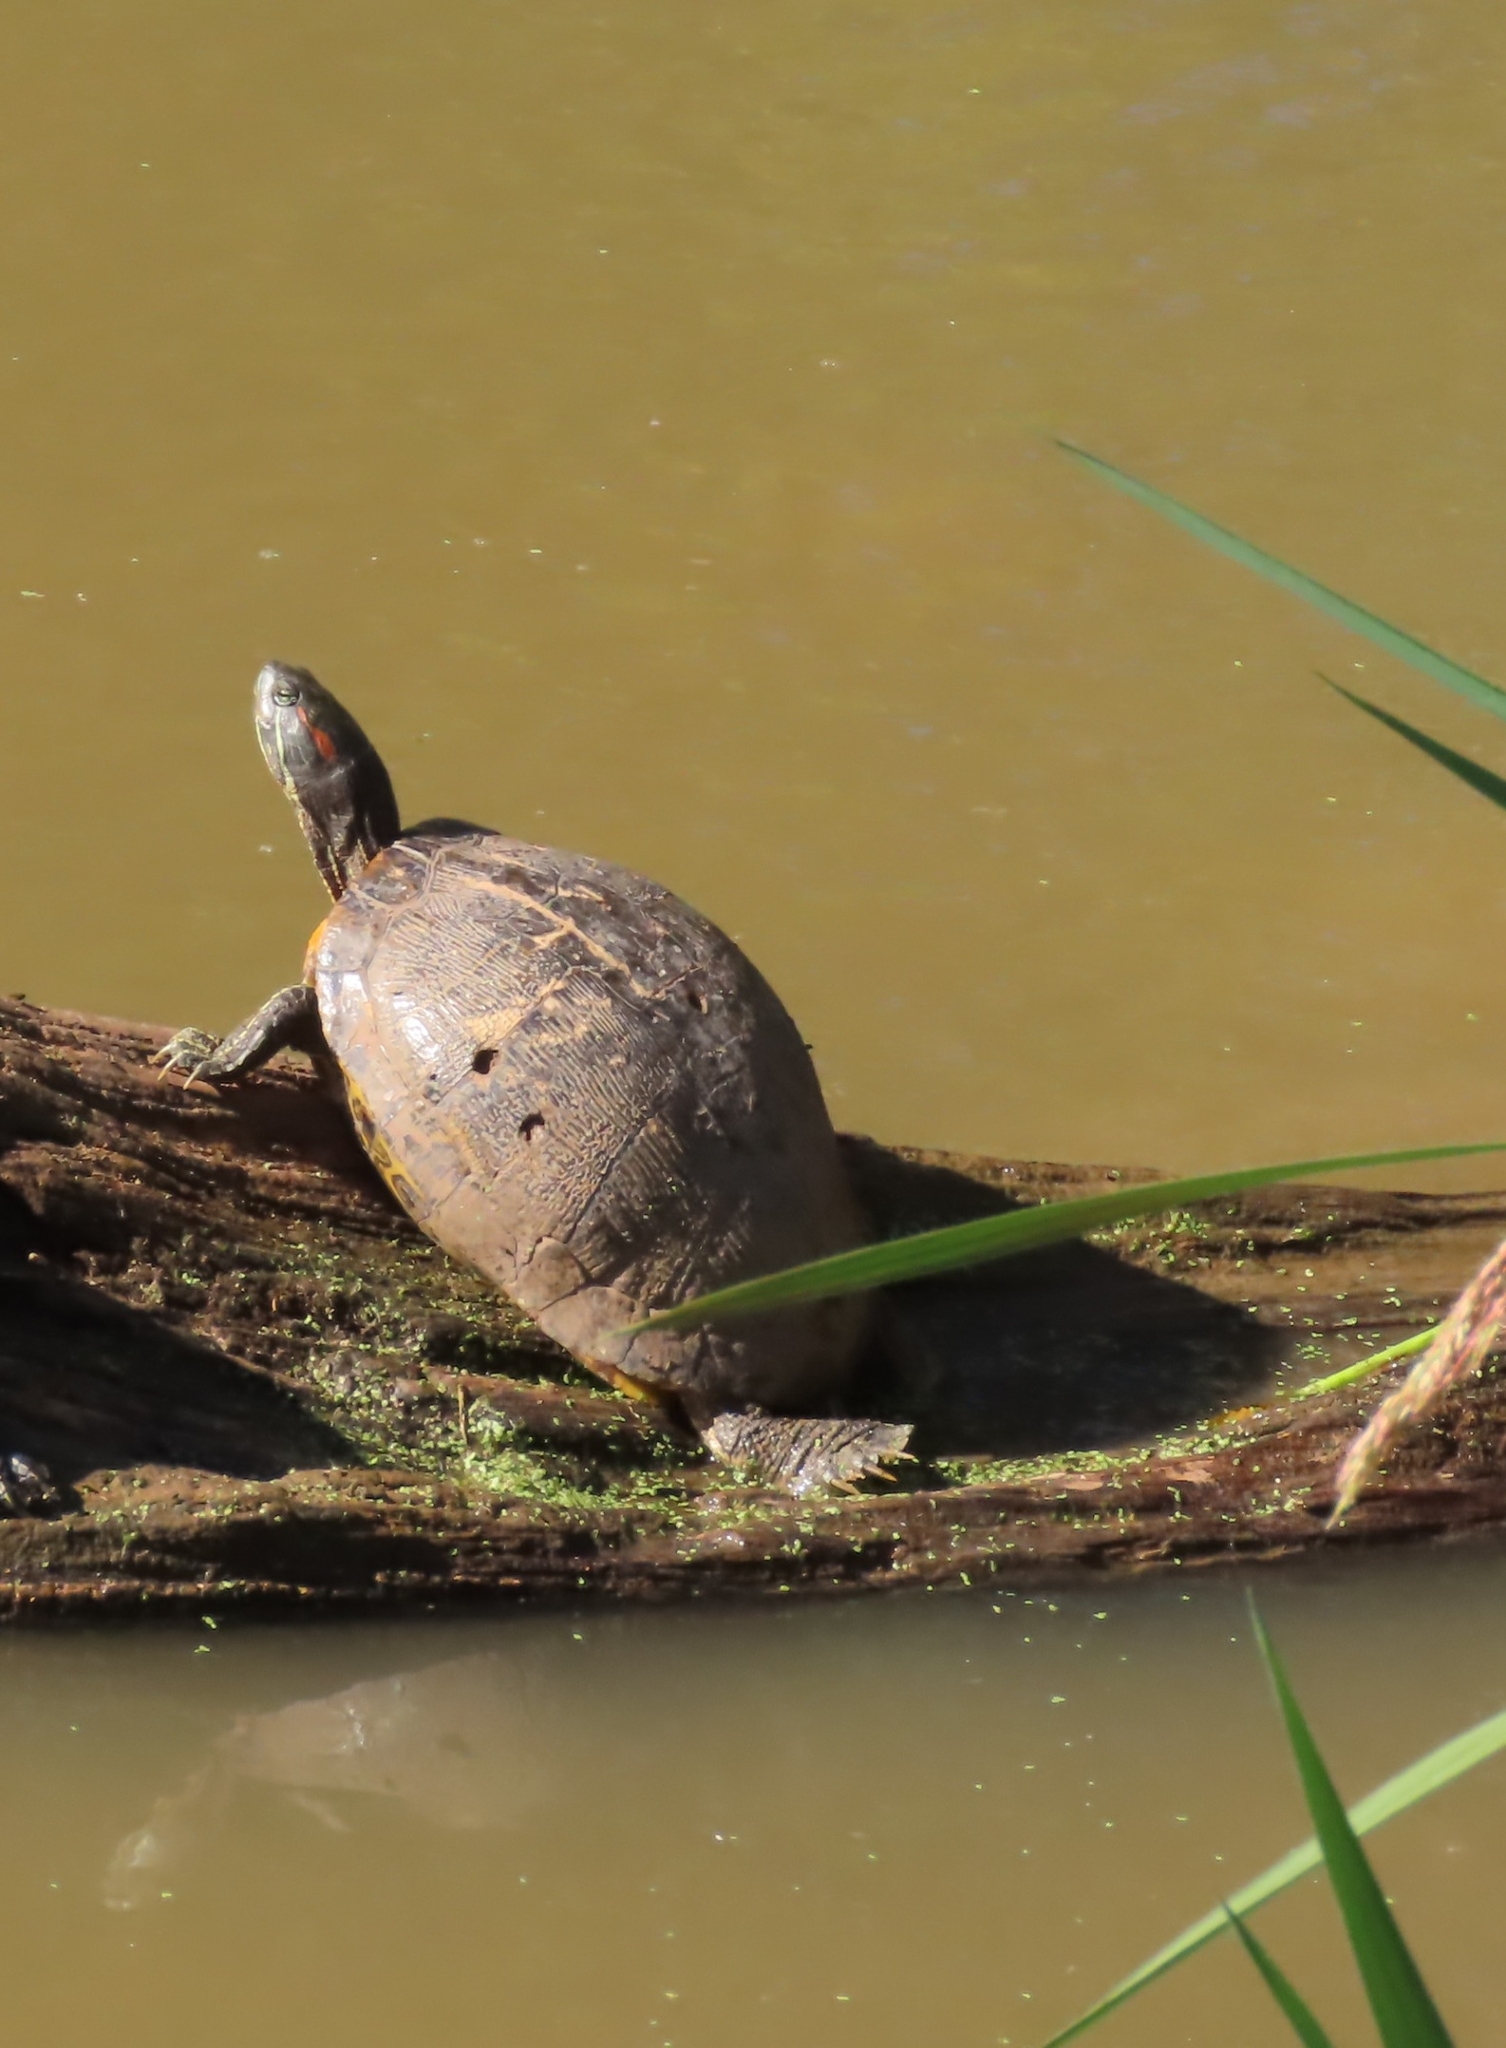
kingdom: Animalia
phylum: Chordata
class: Testudines
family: Emydidae
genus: Trachemys
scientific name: Trachemys scripta
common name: Slider
